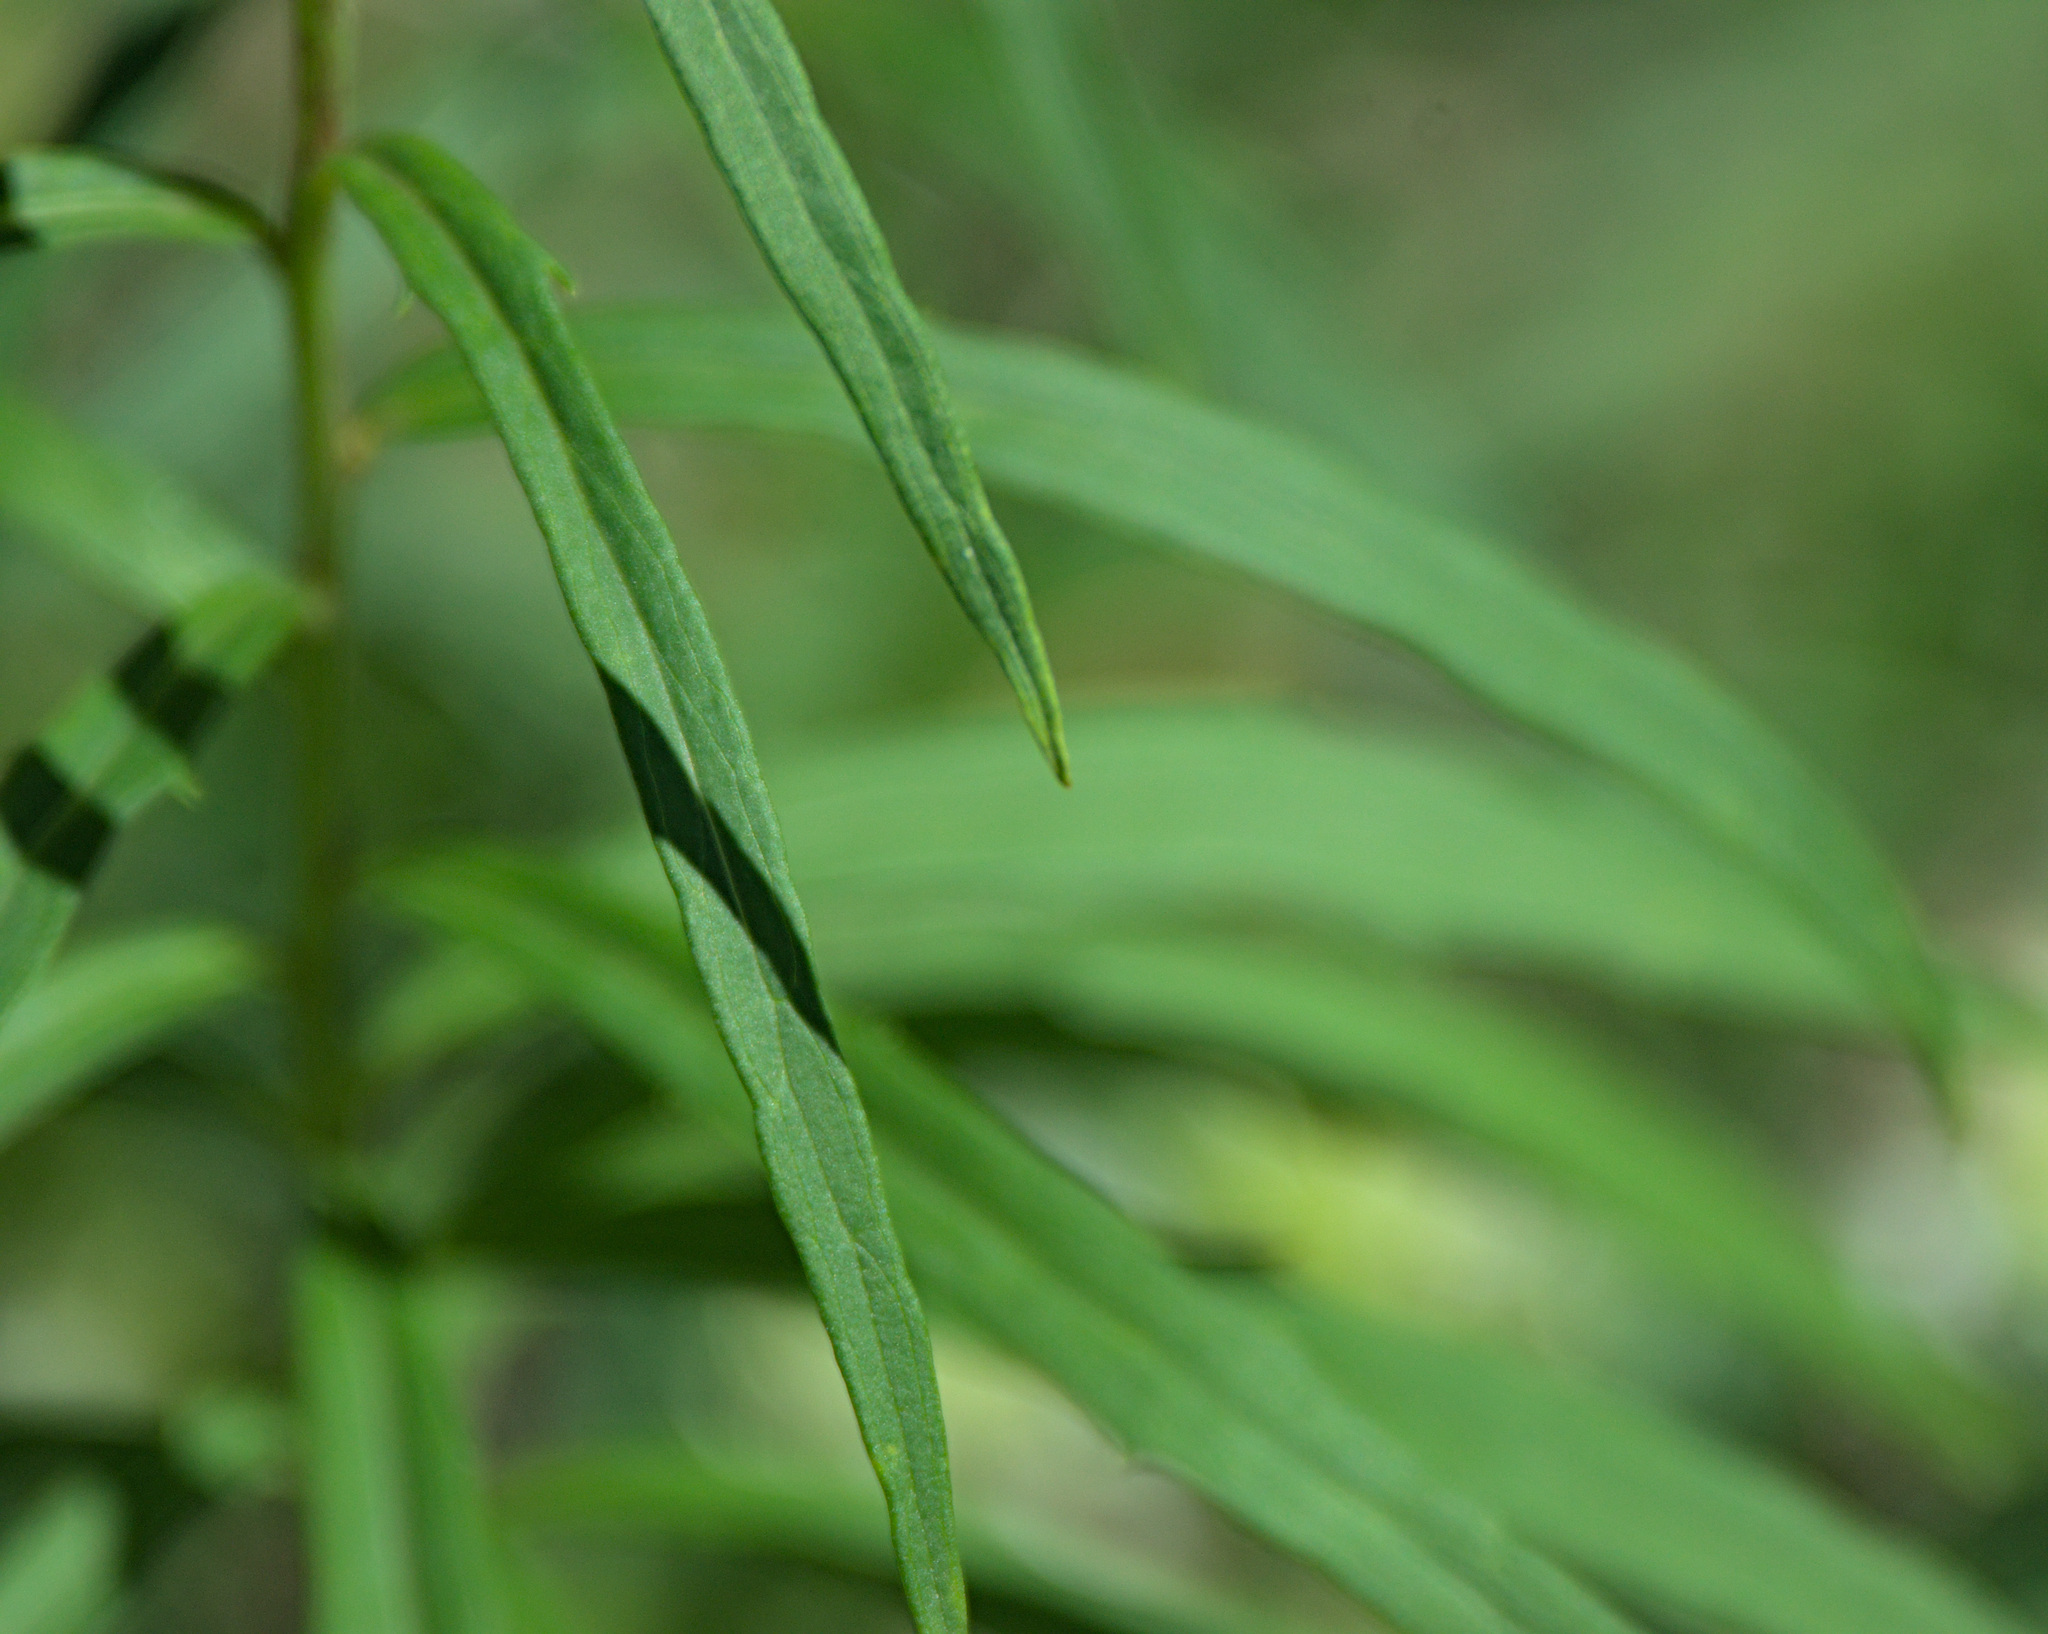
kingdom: Plantae
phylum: Tracheophyta
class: Magnoliopsida
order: Asterales
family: Asteraceae
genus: Hieracium
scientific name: Hieracium umbellatum
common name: Northern hawkweed
